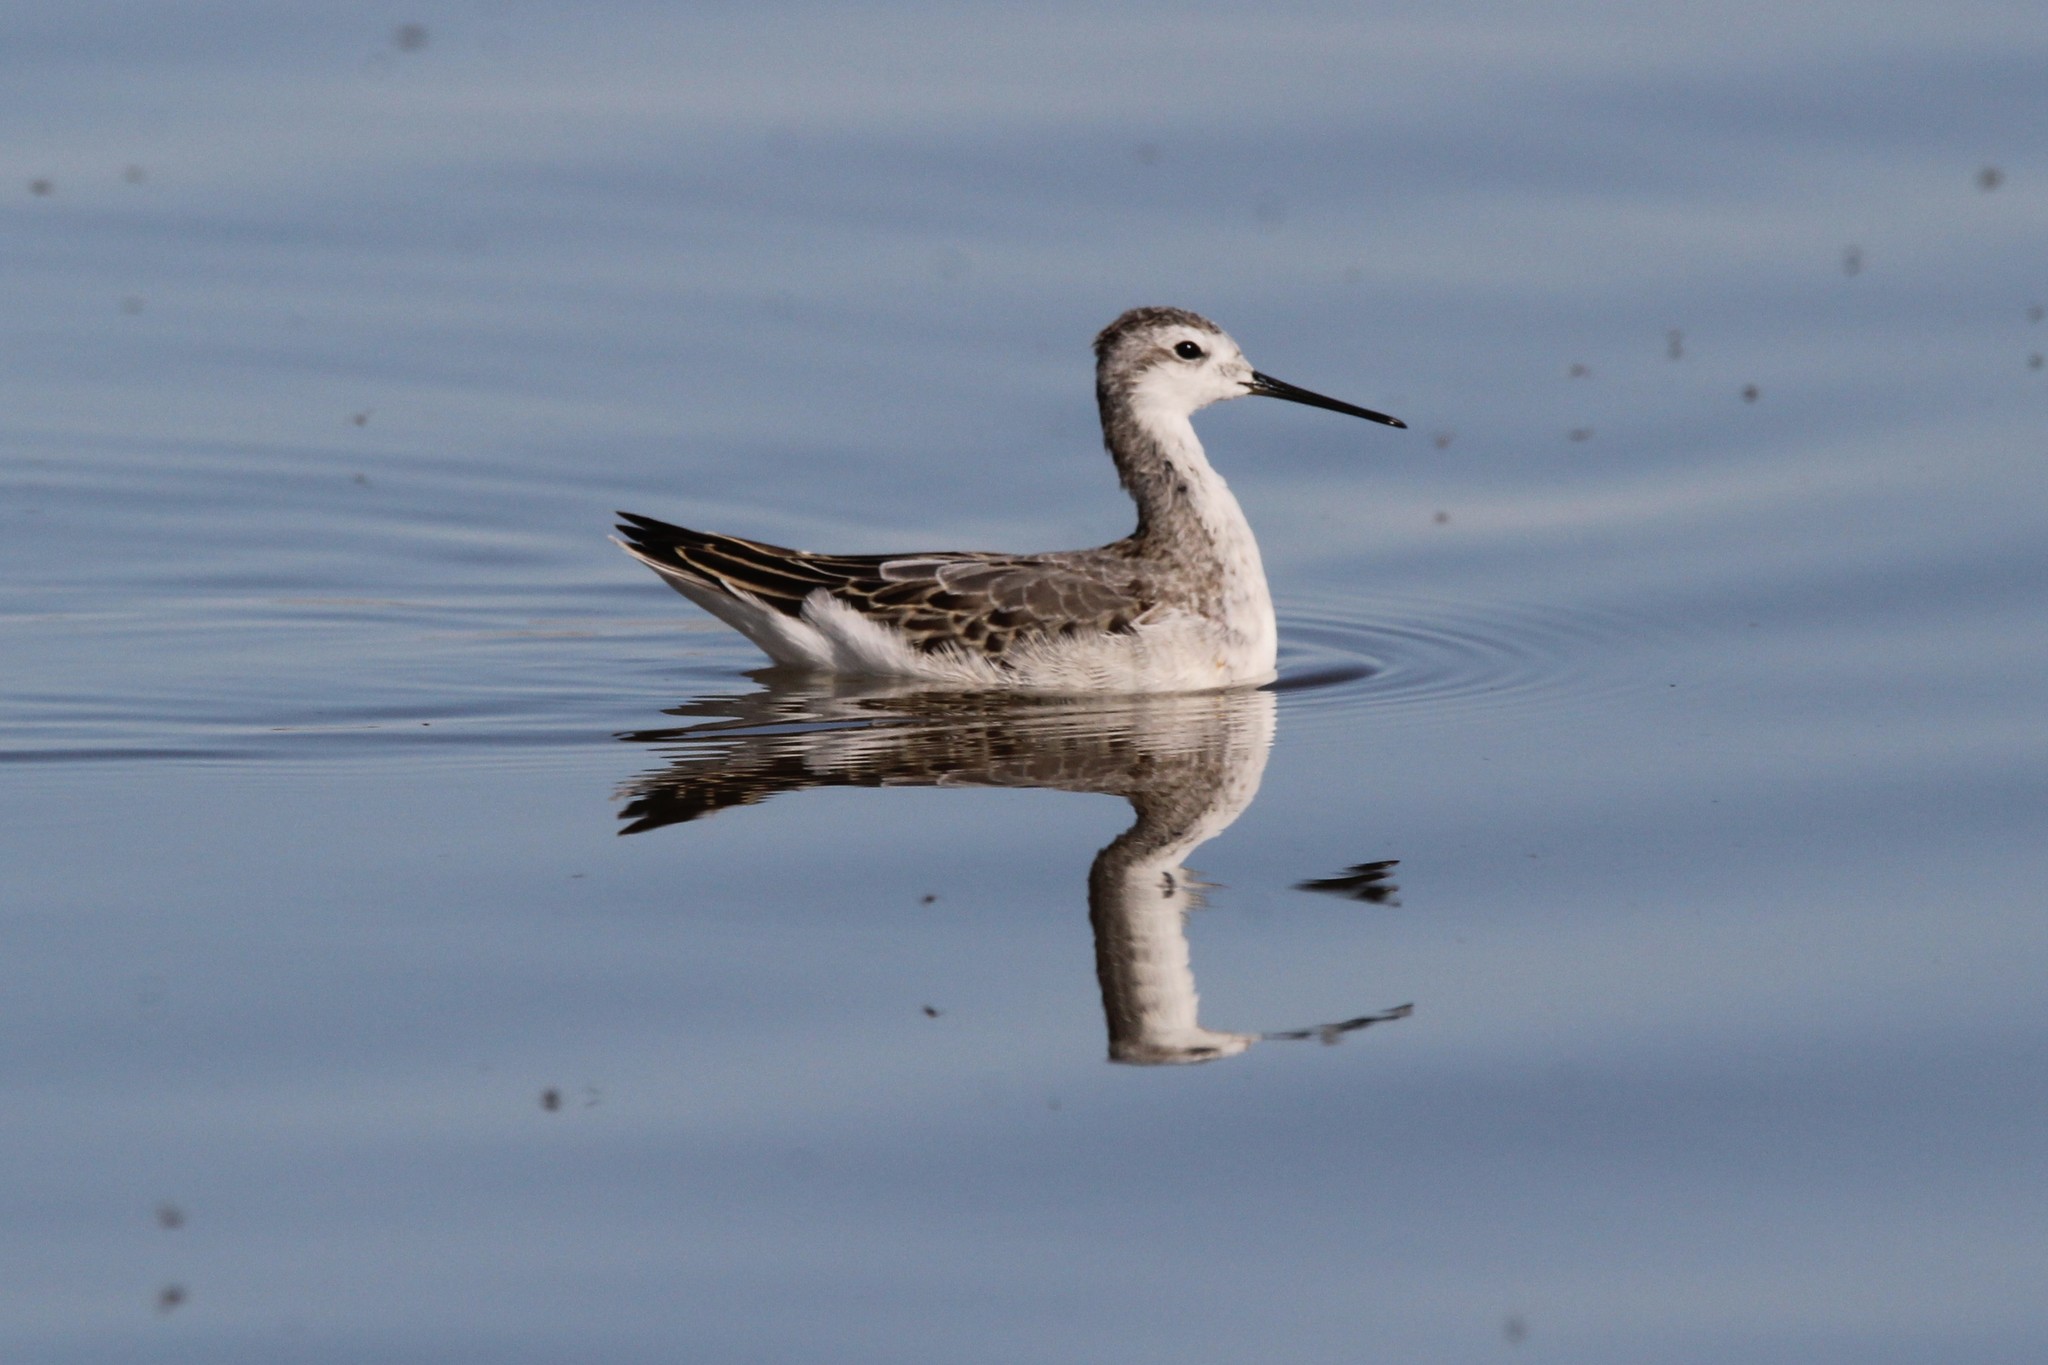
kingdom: Animalia
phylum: Chordata
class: Aves
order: Charadriiformes
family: Scolopacidae
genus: Phalaropus
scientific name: Phalaropus tricolor
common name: Wilson's phalarope
